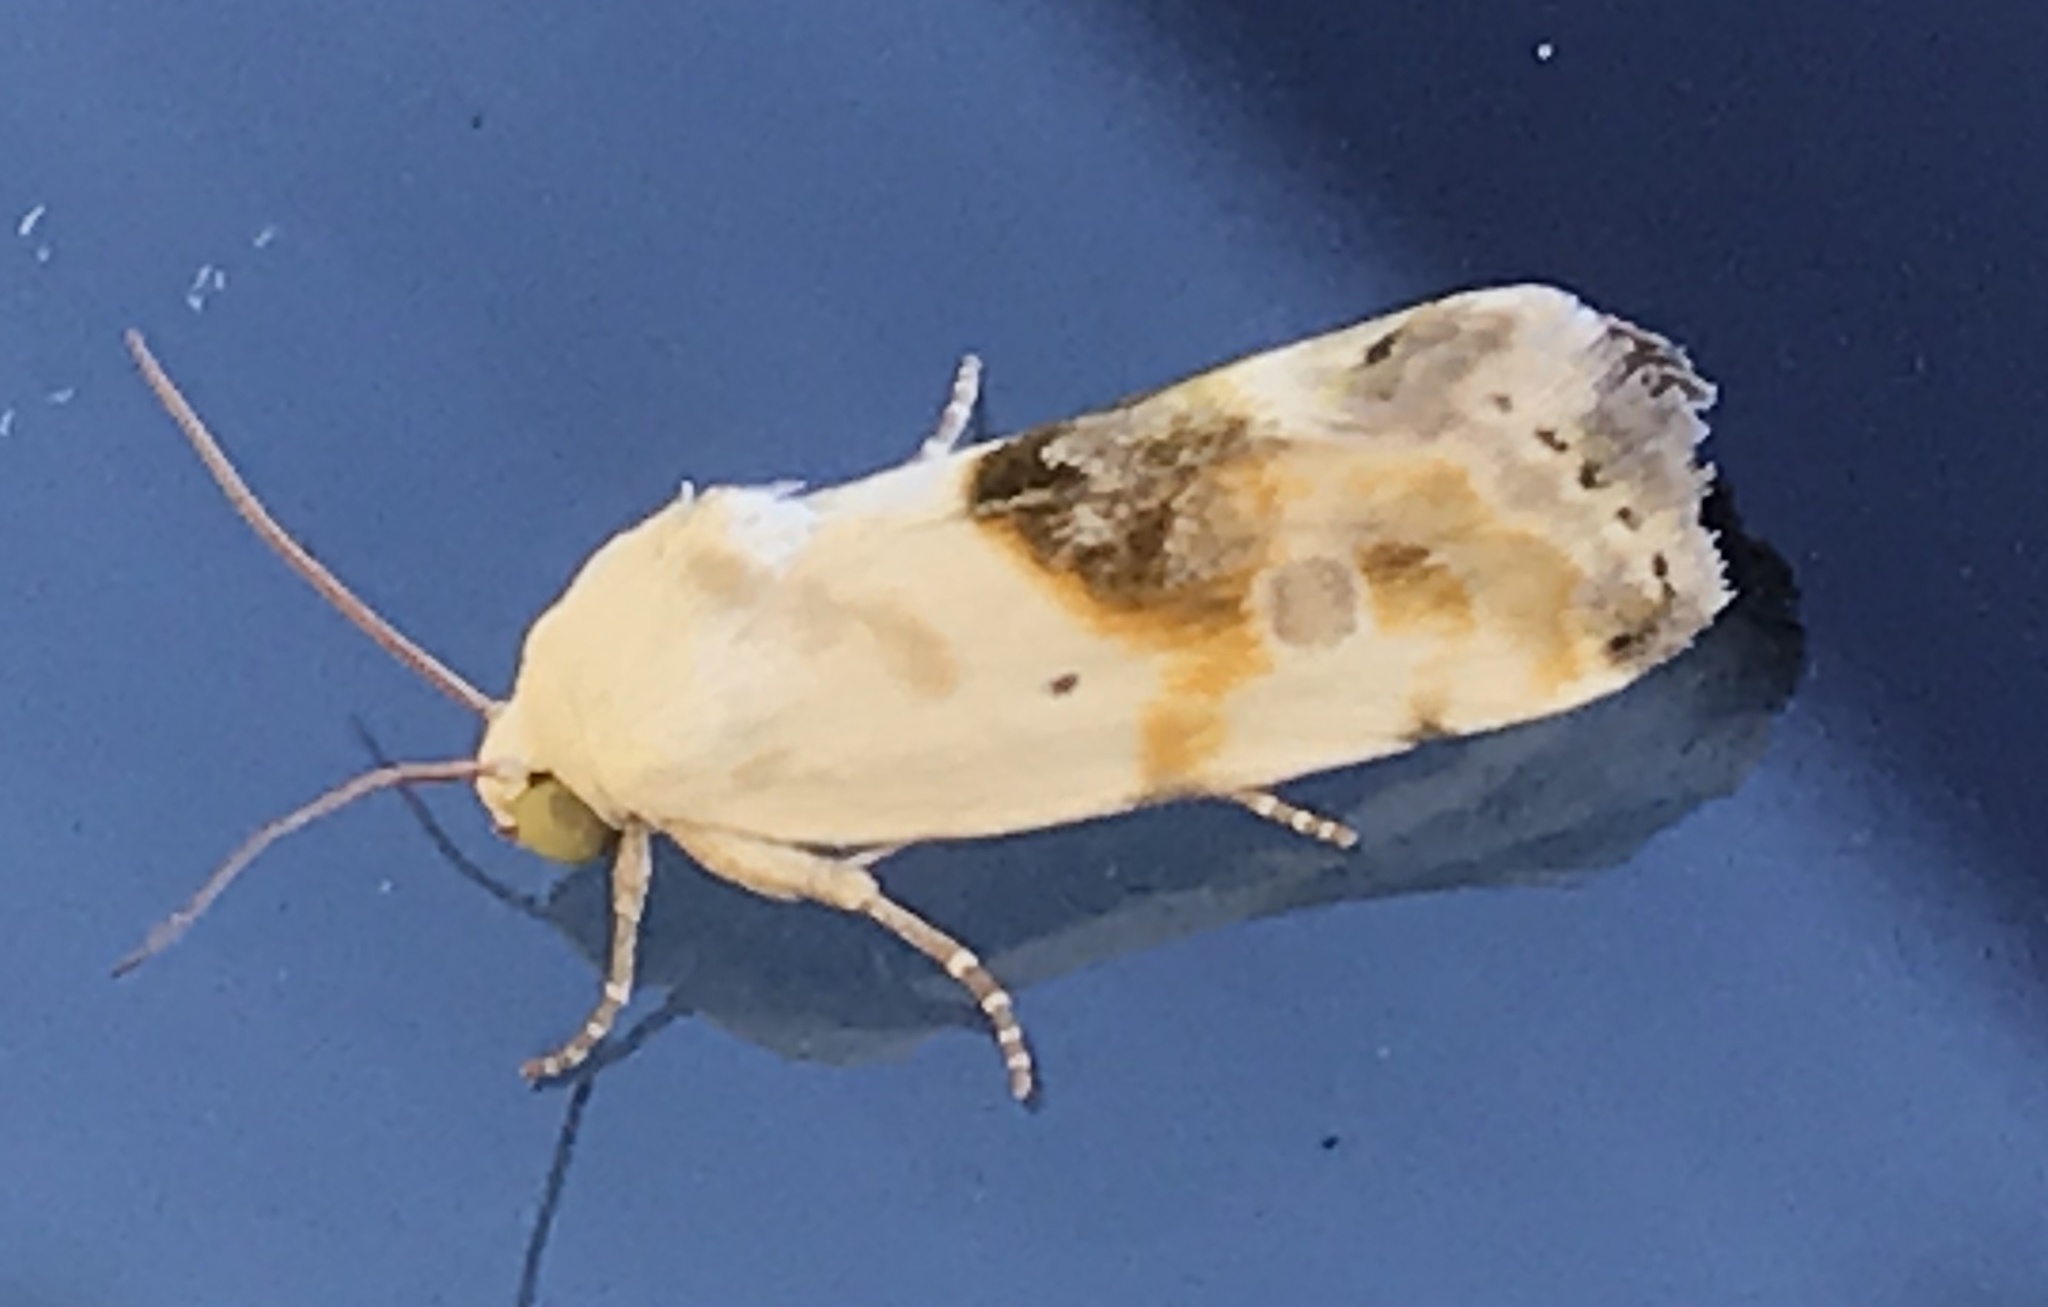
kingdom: Animalia
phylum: Arthropoda
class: Insecta
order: Lepidoptera
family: Noctuidae
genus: Acontia
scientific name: Acontia candefacta
